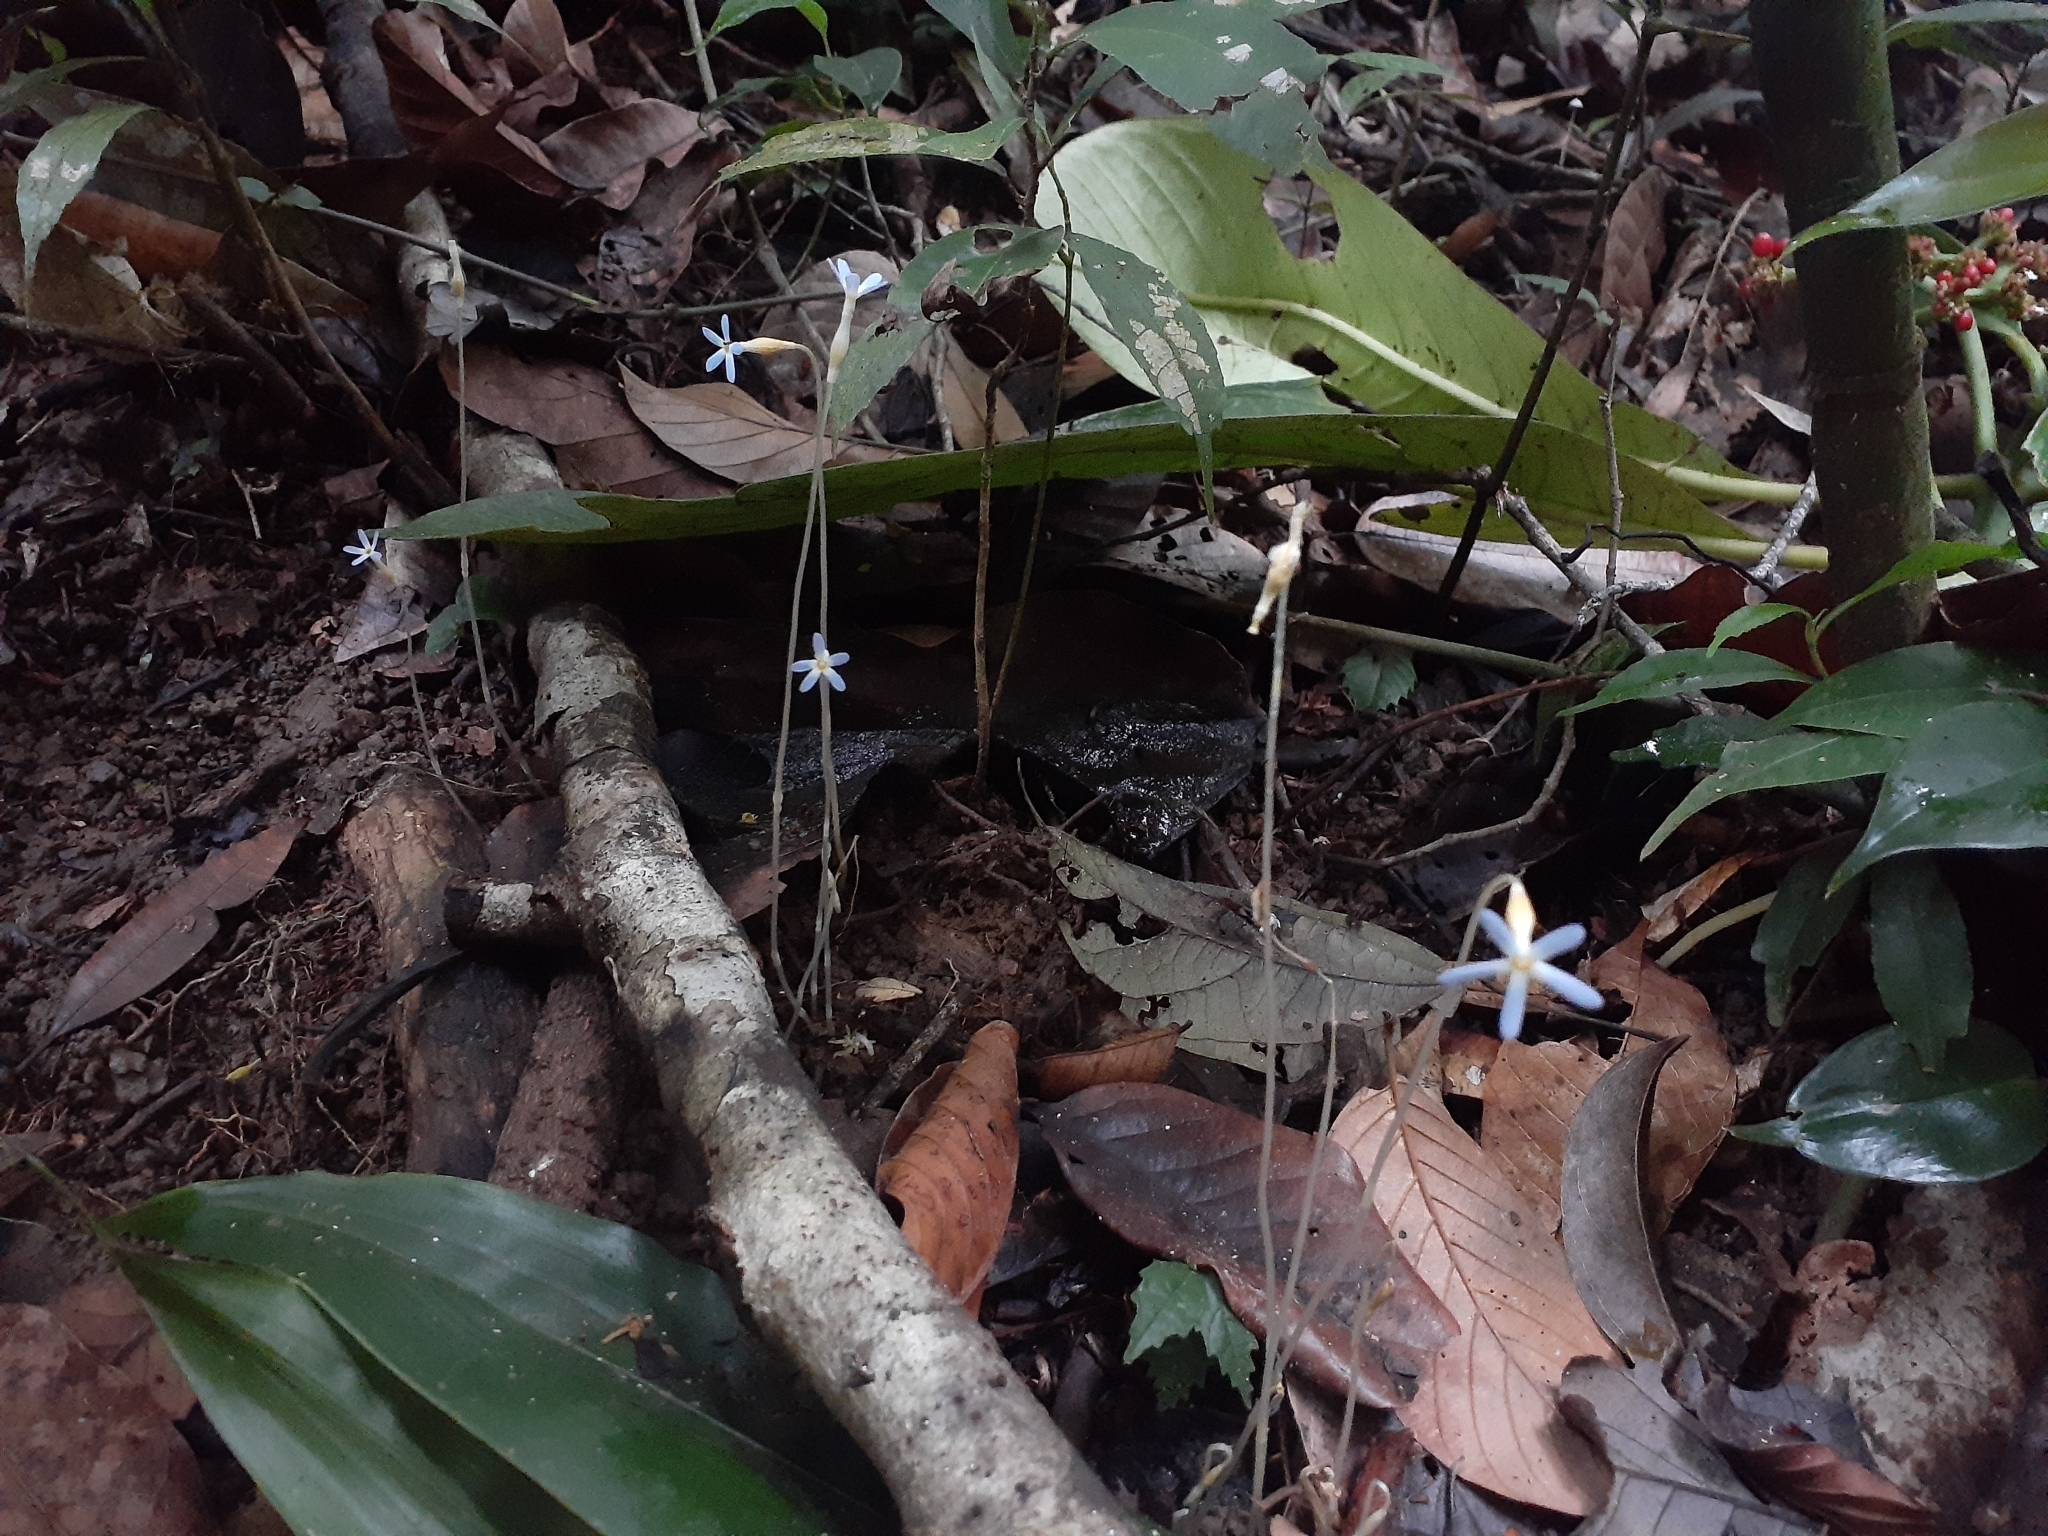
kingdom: Plantae
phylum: Tracheophyta
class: Magnoliopsida
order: Gentianales
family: Gentianaceae
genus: Voyria
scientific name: Voyria tenella
